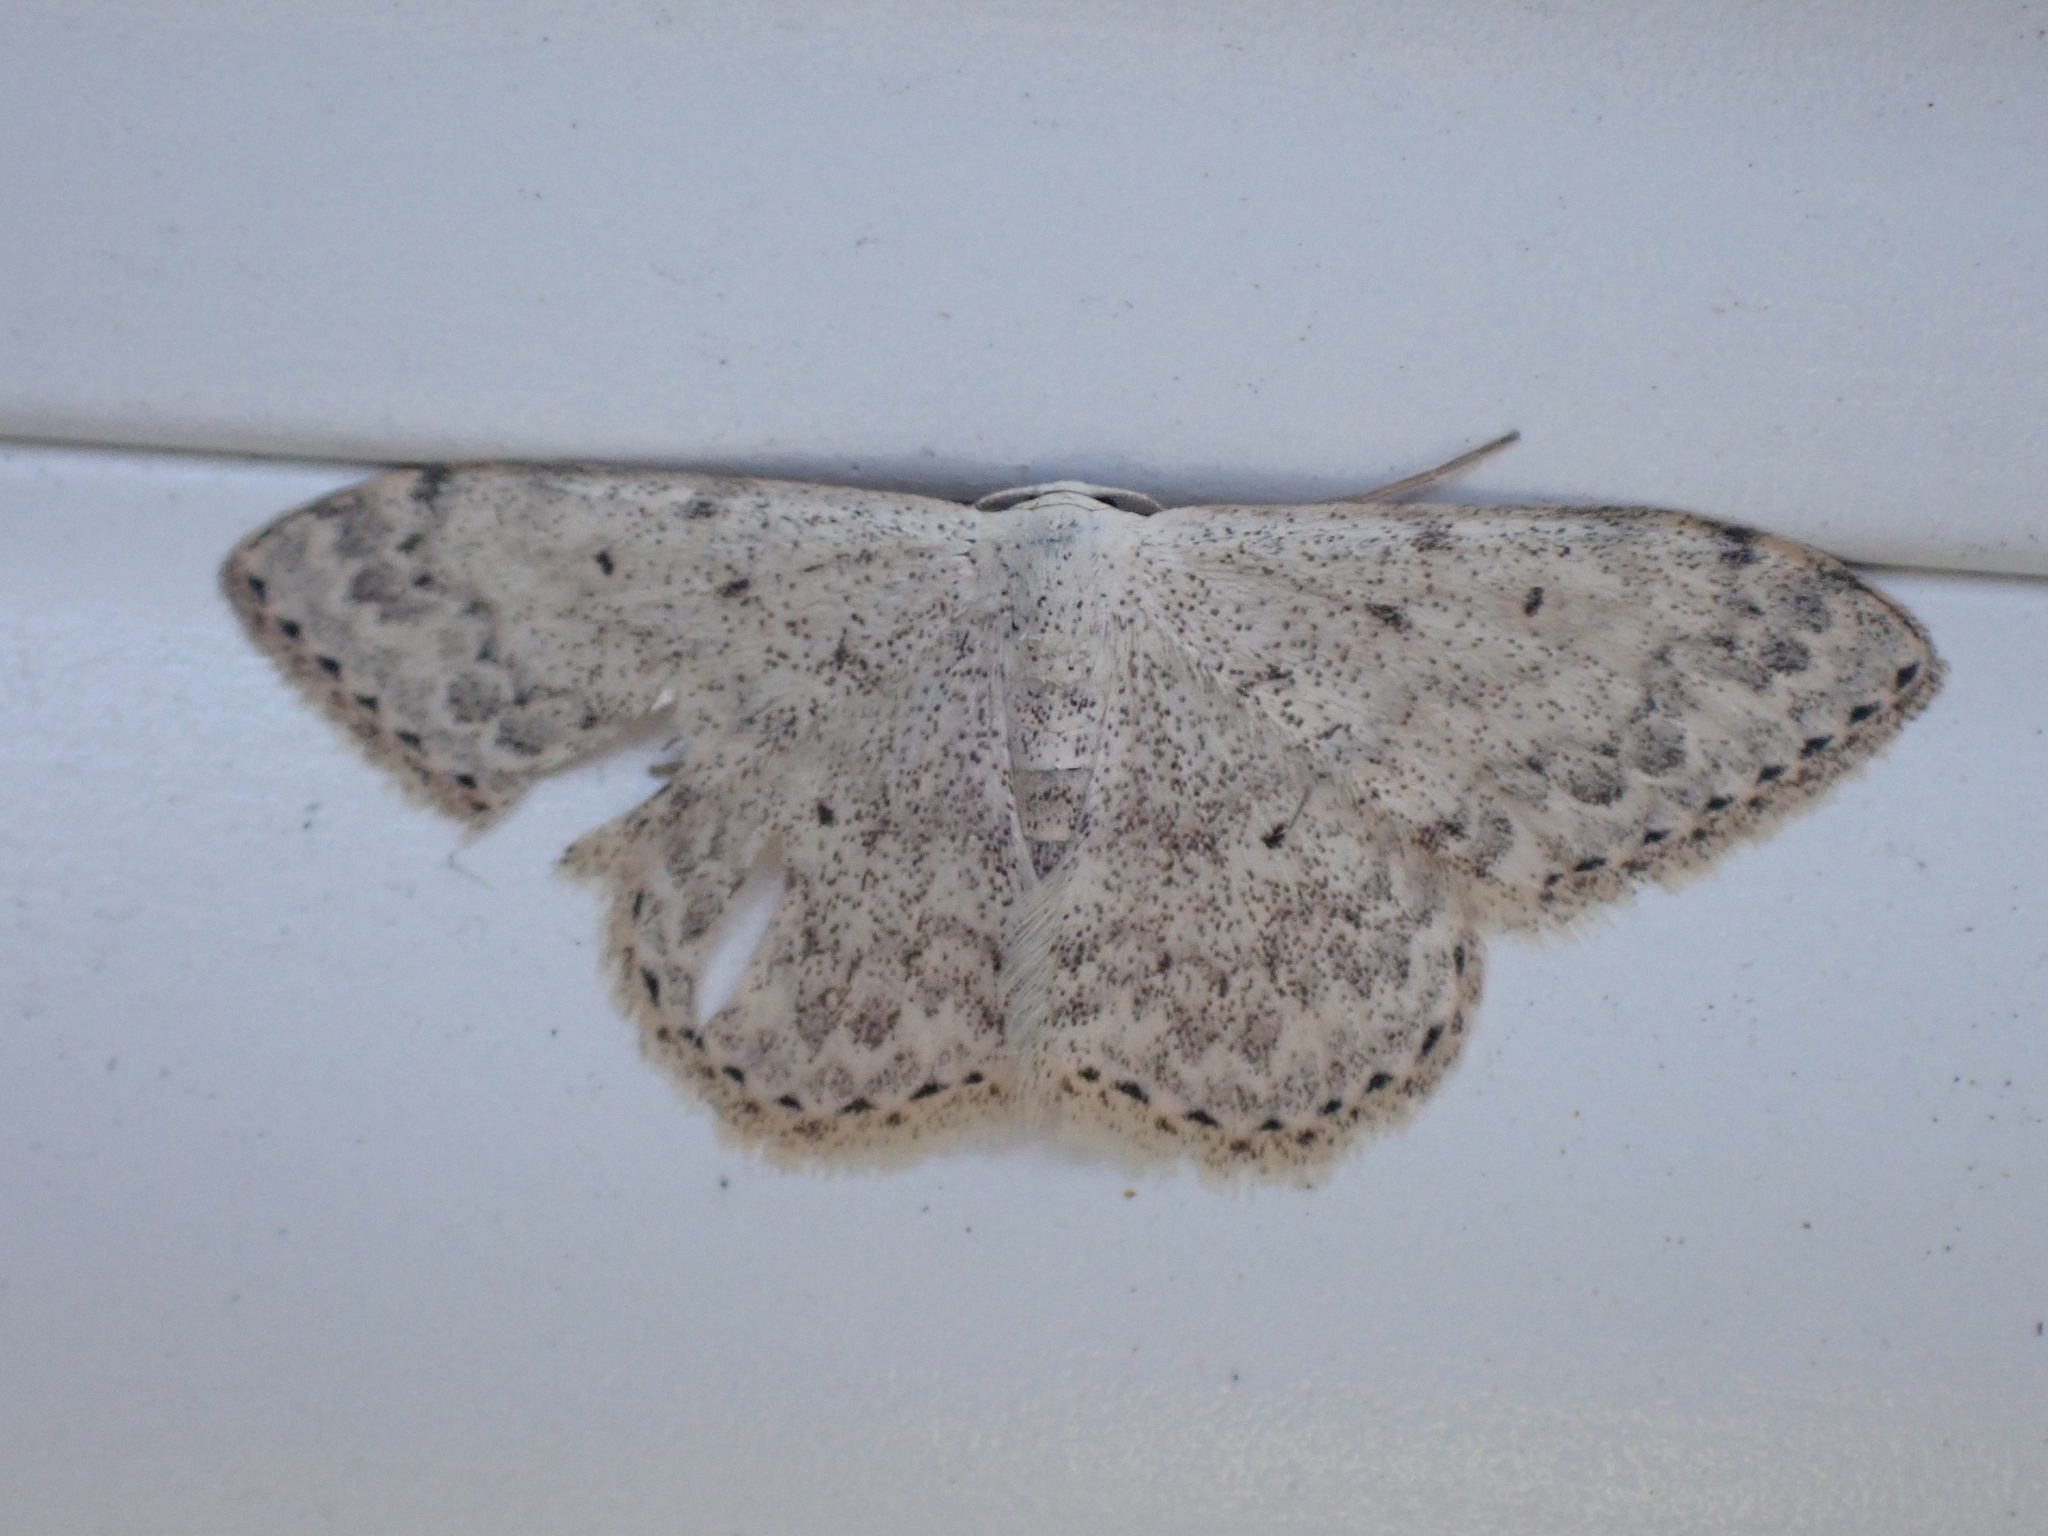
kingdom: Animalia
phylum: Arthropoda
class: Insecta
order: Lepidoptera
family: Geometridae
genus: Scopula
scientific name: Scopula marginepunctata
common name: Mullein wave
